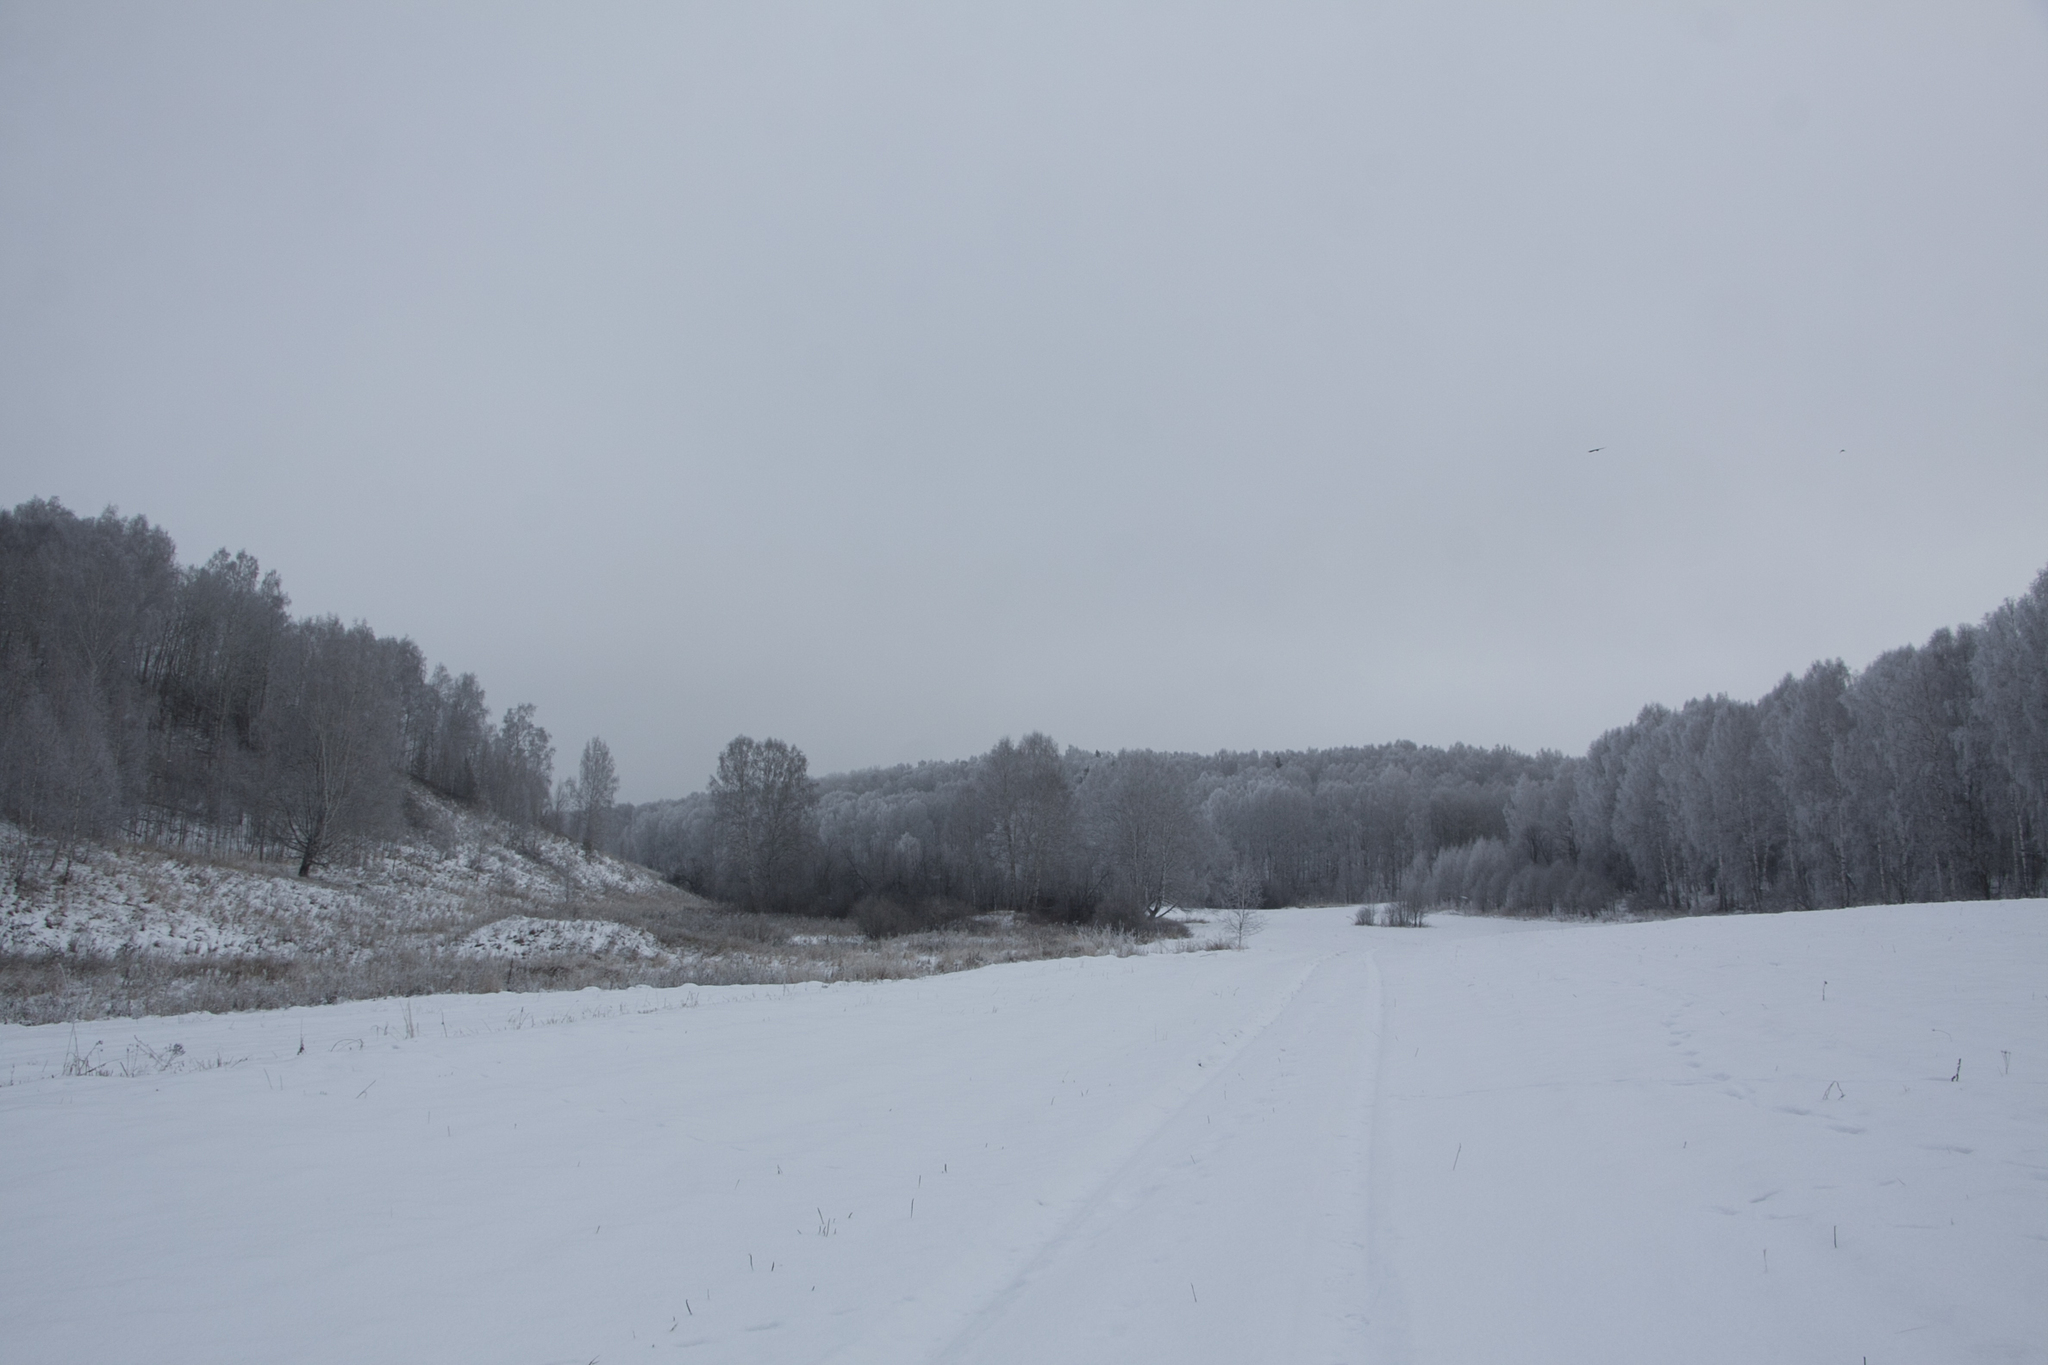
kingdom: Plantae
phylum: Tracheophyta
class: Magnoliopsida
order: Fagales
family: Betulaceae
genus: Betula
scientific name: Betula pendula
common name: Silver birch
